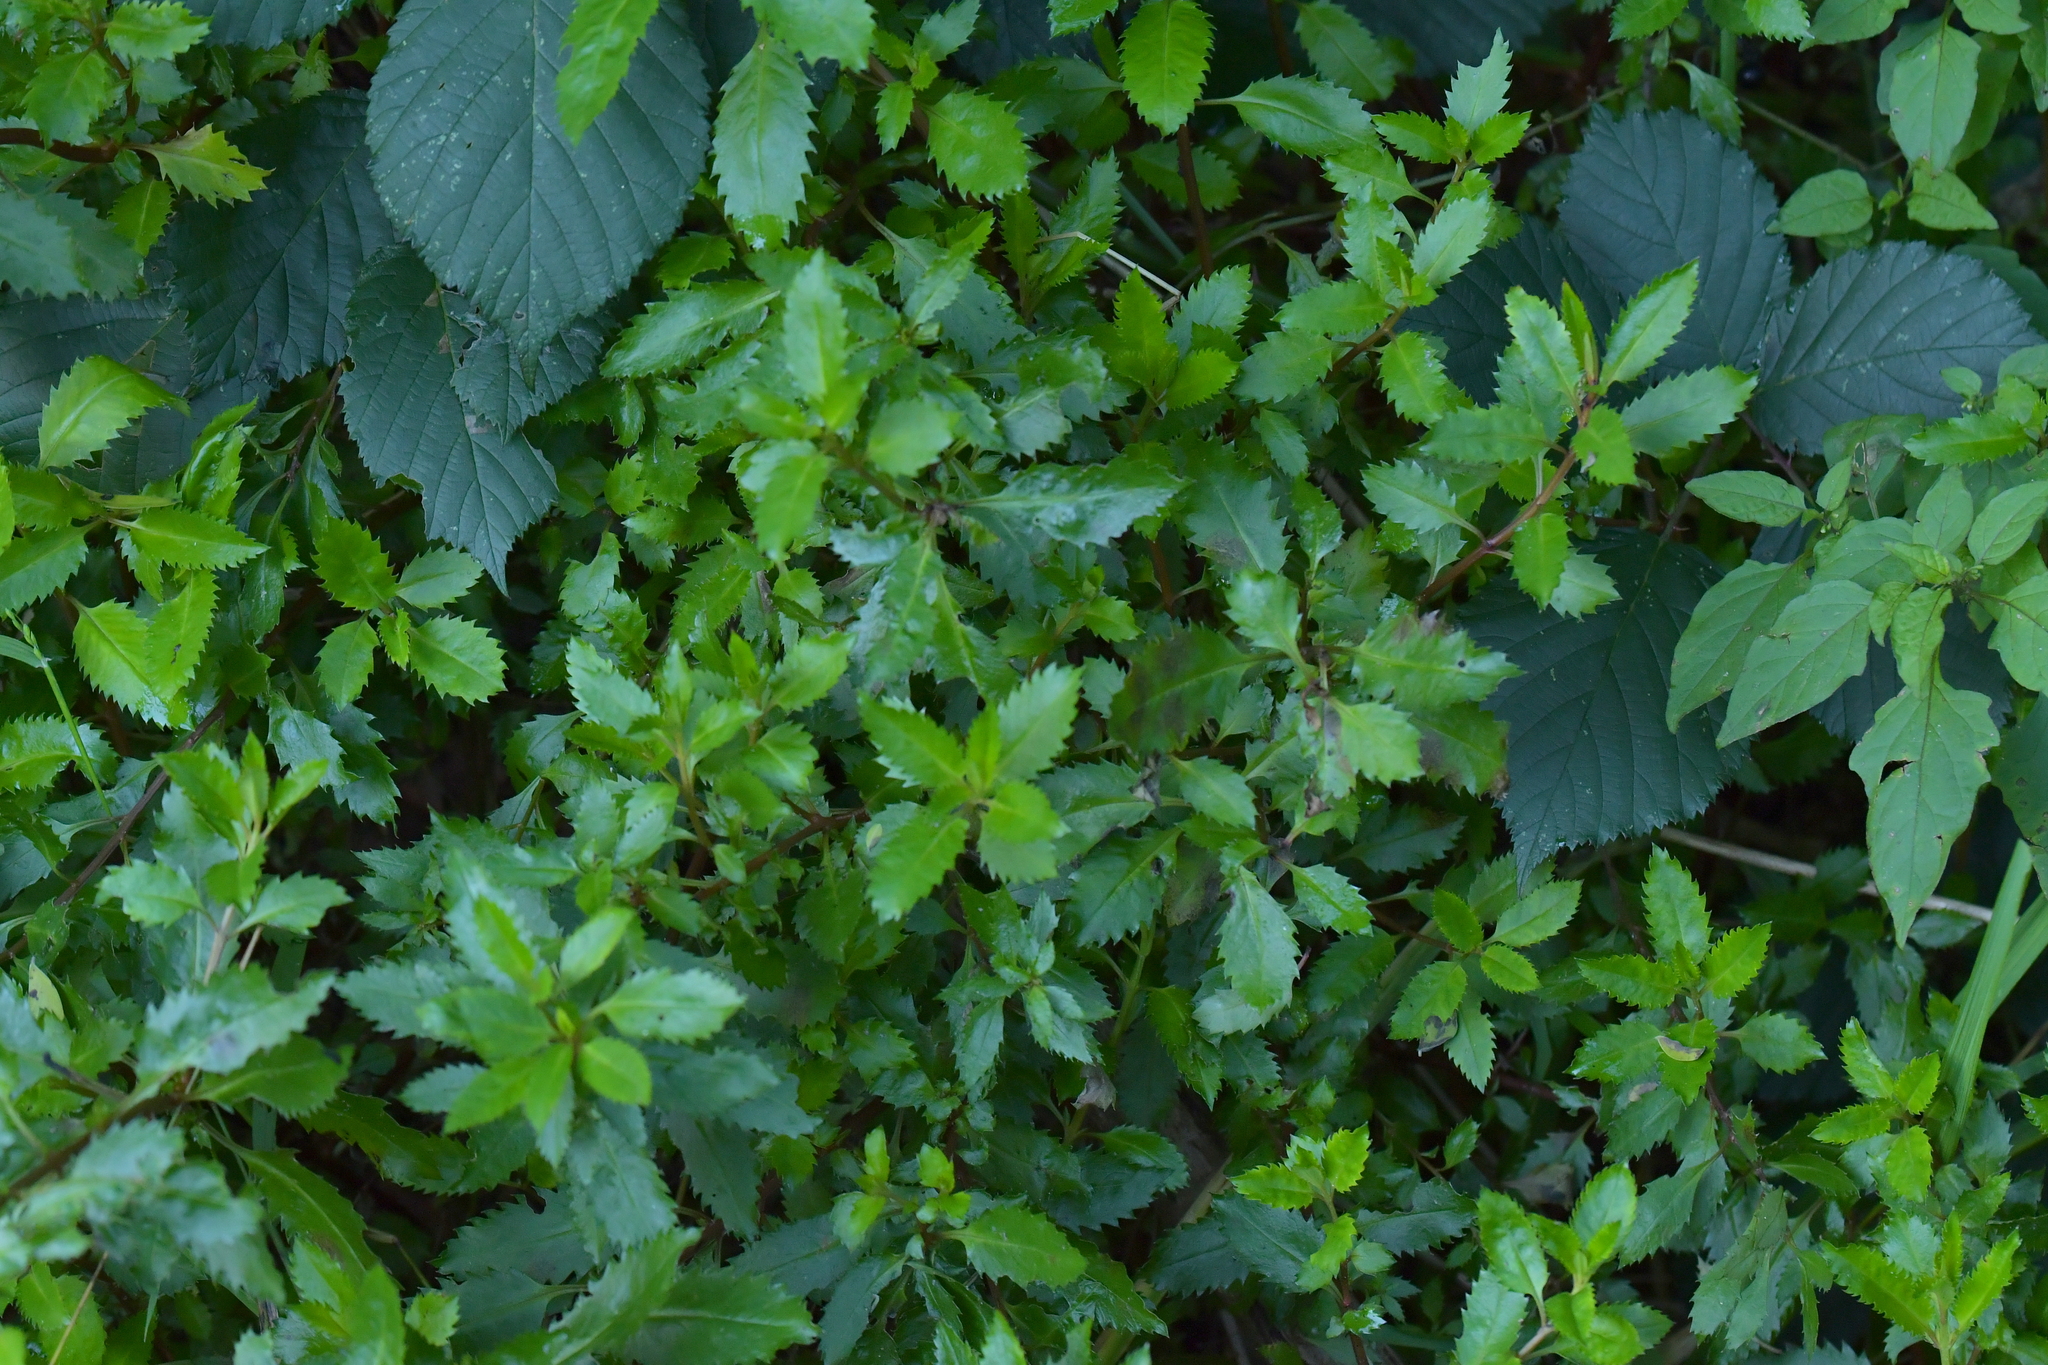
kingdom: Plantae
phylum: Tracheophyta
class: Magnoliopsida
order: Saxifragales
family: Haloragaceae
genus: Haloragis
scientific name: Haloragis erecta
